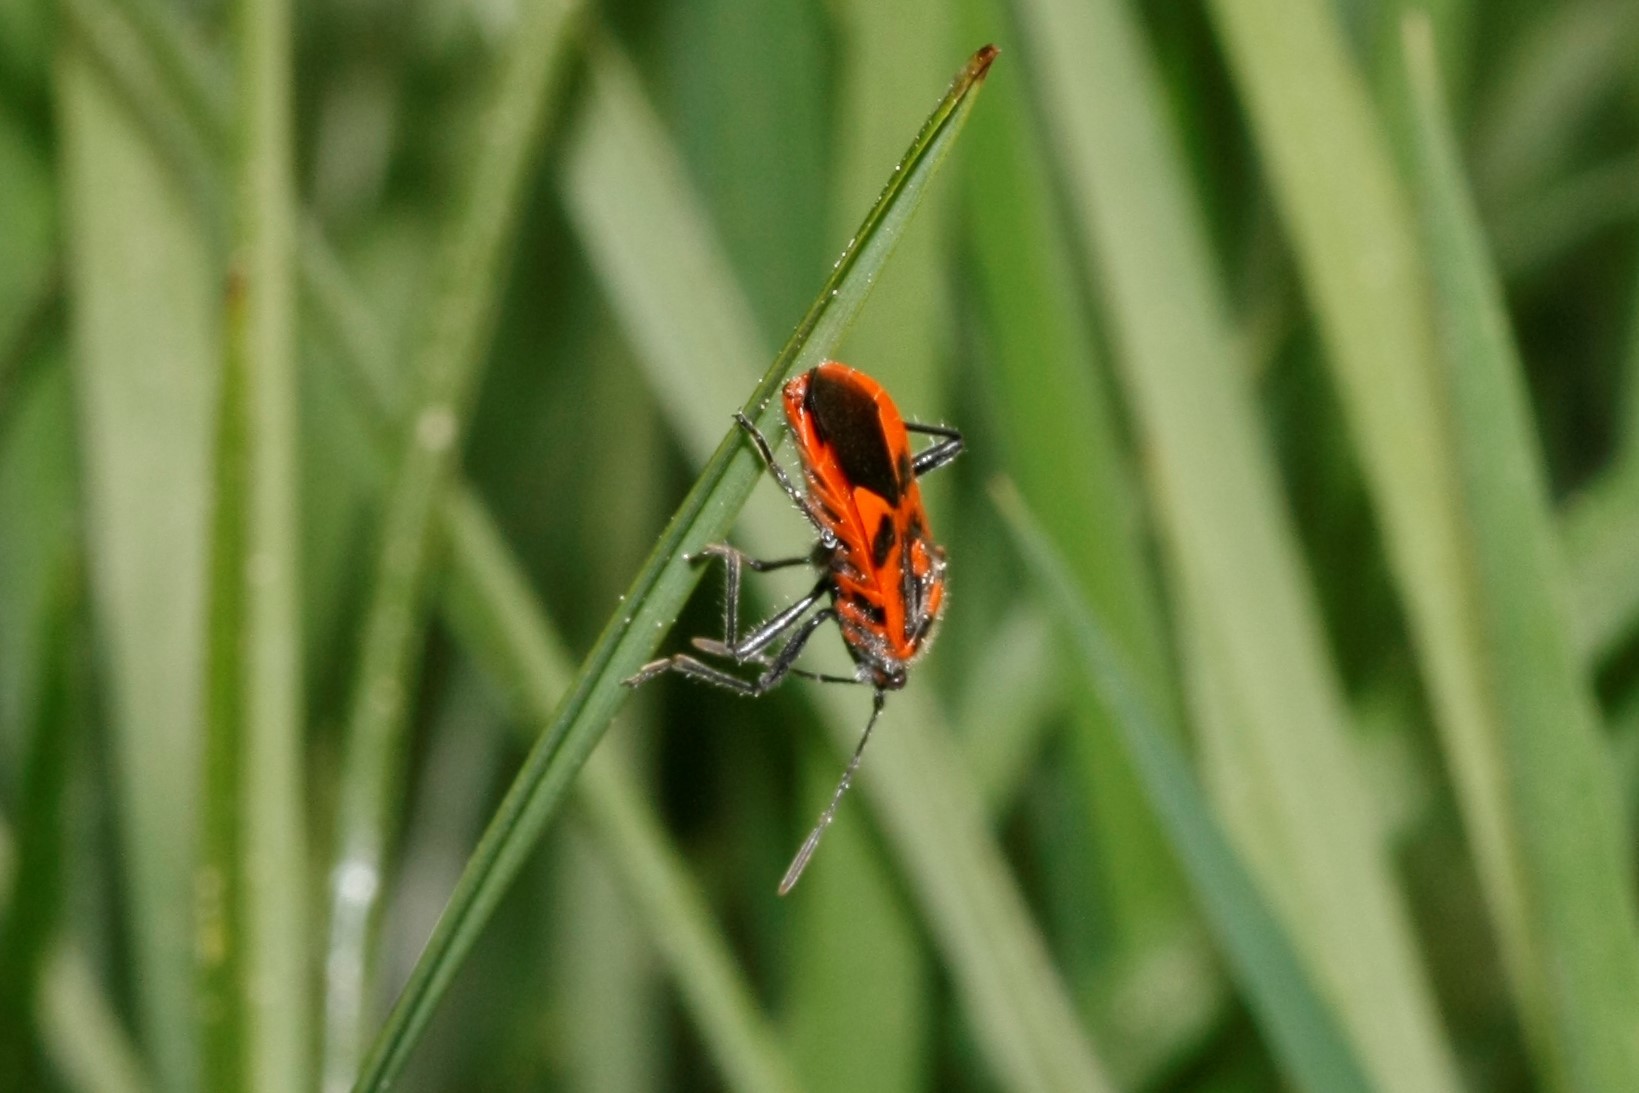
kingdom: Animalia
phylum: Arthropoda
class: Insecta
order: Hemiptera
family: Rhopalidae
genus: Corizus
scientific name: Corizus hyoscyami
